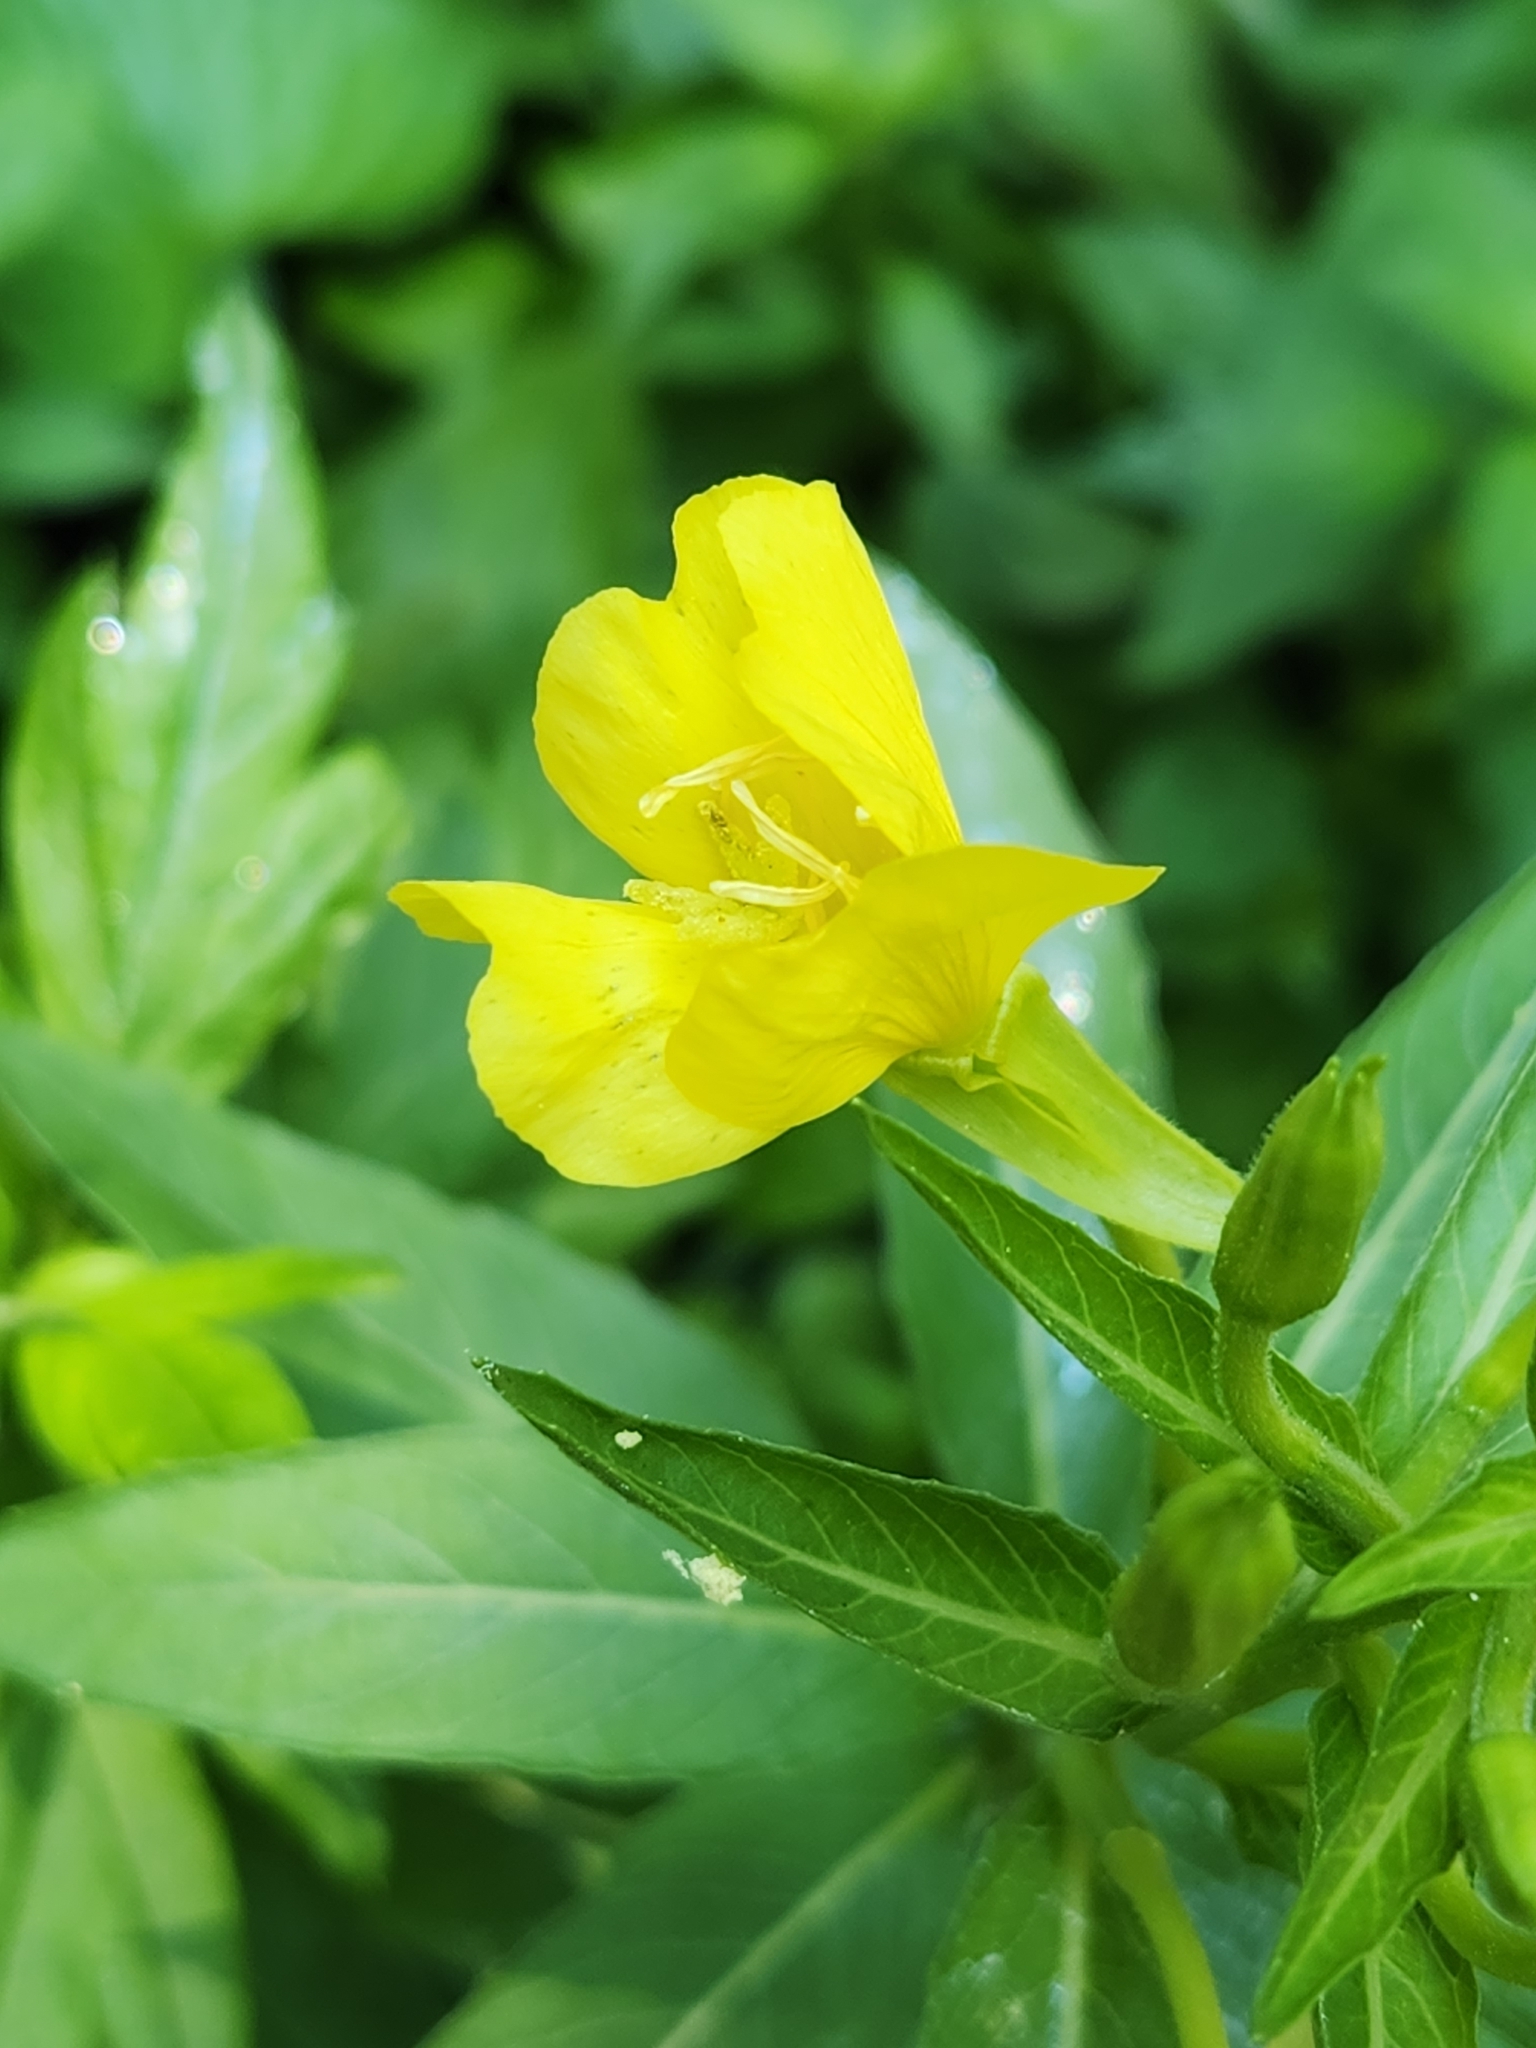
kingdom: Plantae
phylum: Tracheophyta
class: Magnoliopsida
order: Myrtales
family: Onagraceae
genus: Oenothera
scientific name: Oenothera biennis
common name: Common evening-primrose
